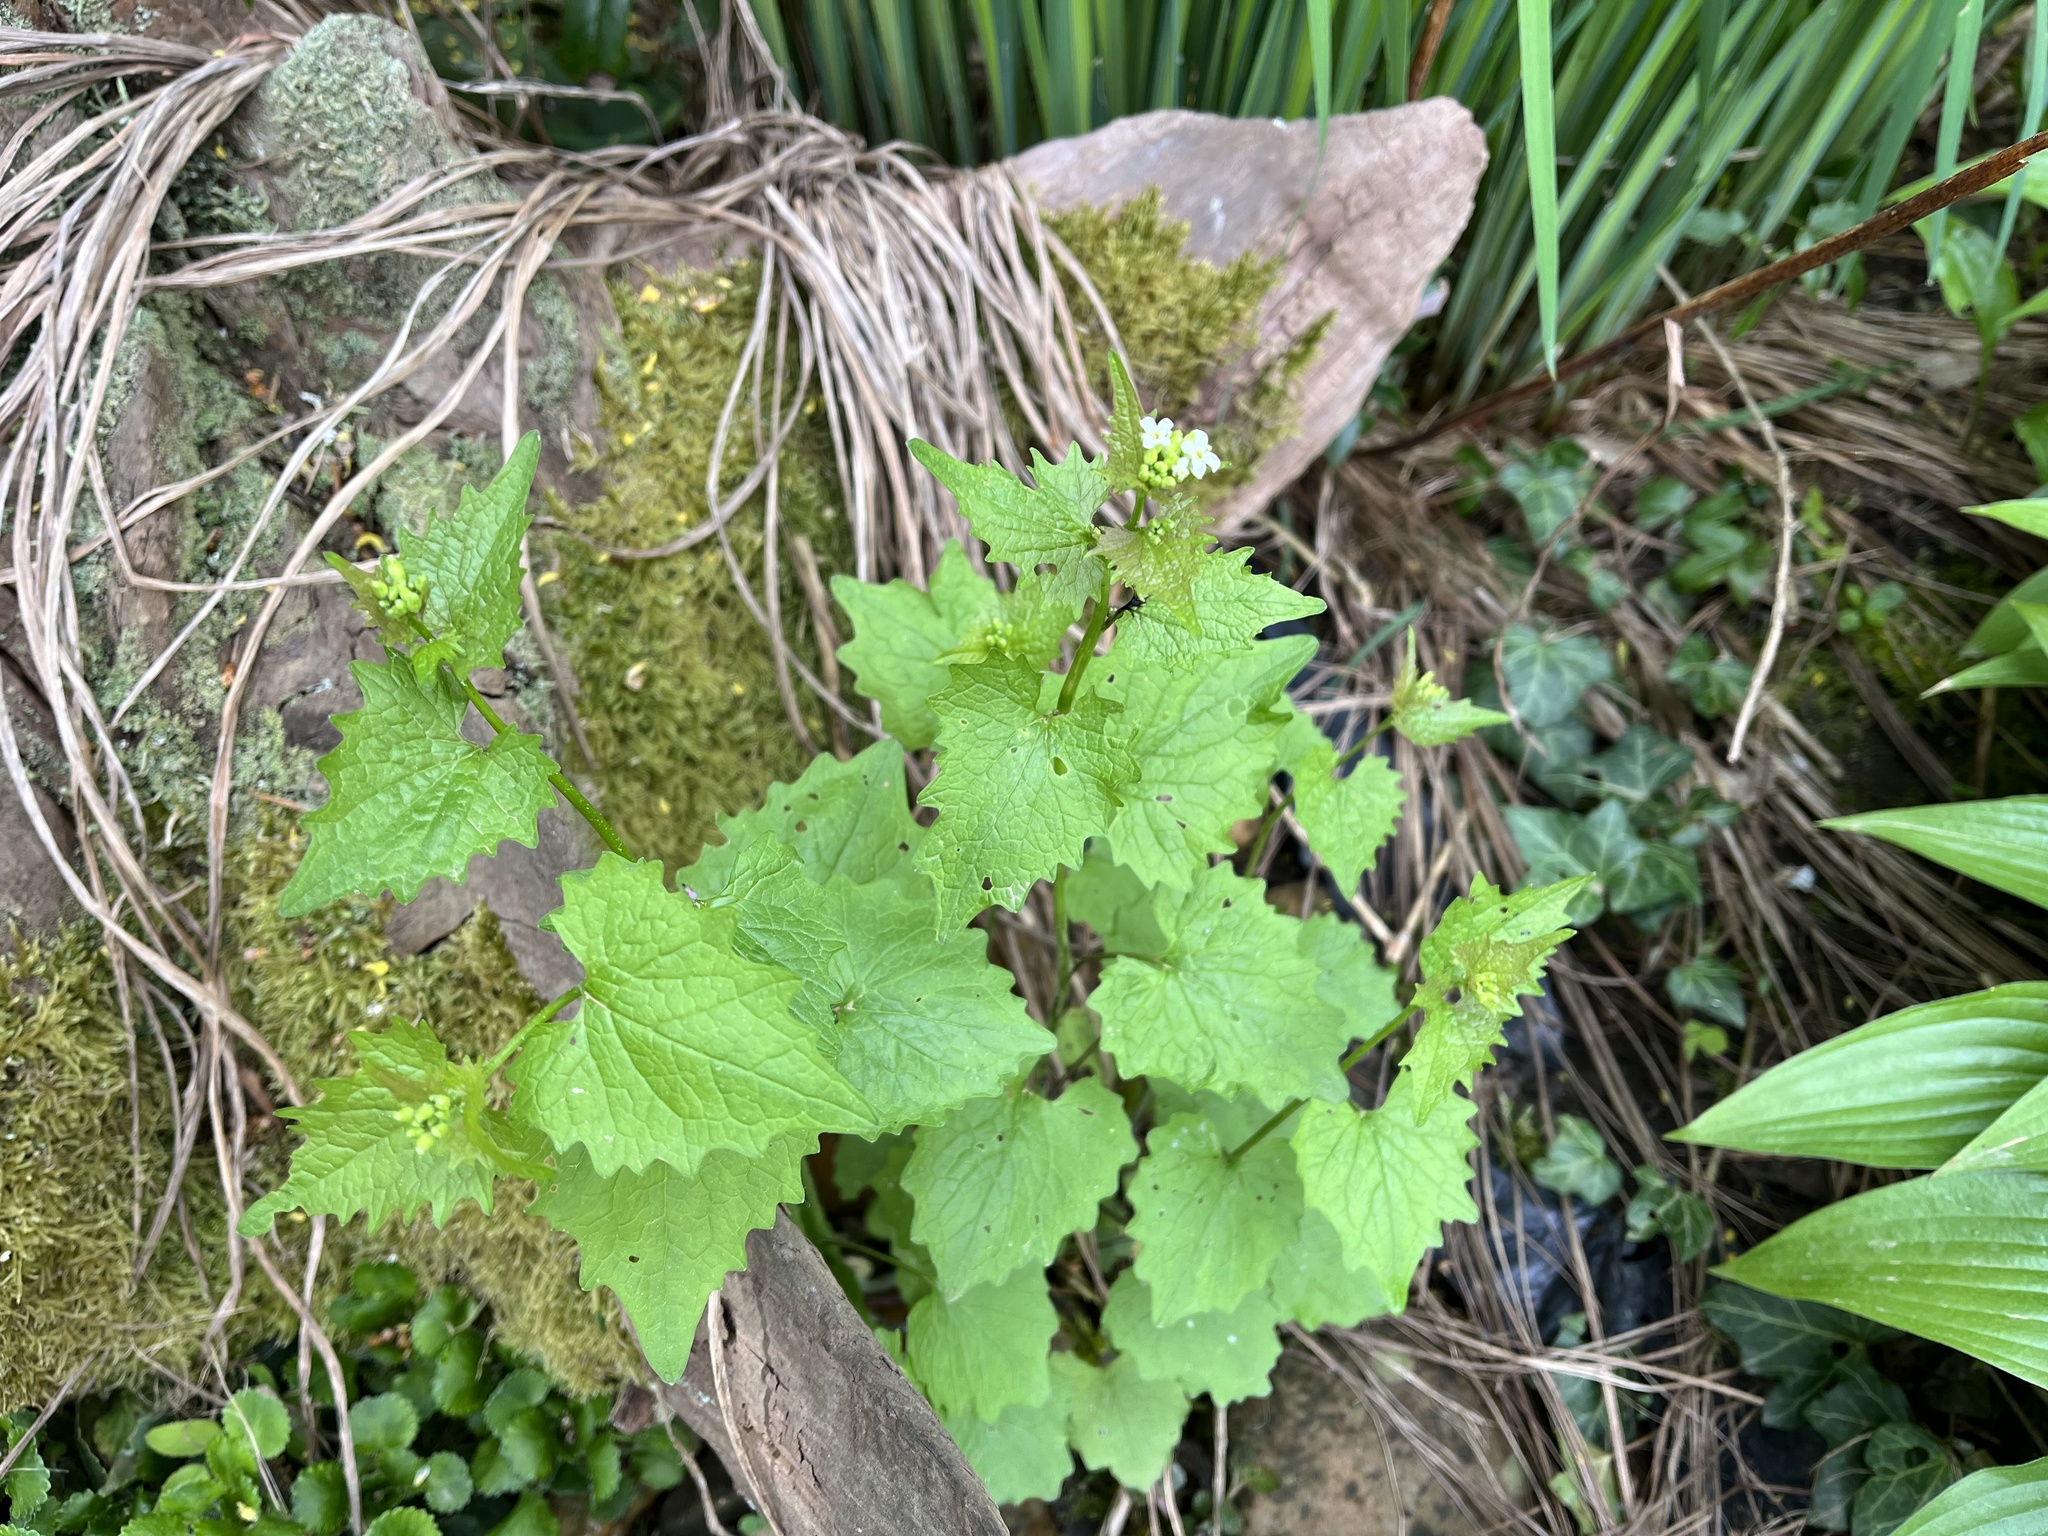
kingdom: Plantae
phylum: Tracheophyta
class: Magnoliopsida
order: Brassicales
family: Brassicaceae
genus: Alliaria
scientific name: Alliaria petiolata
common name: Garlic mustard
